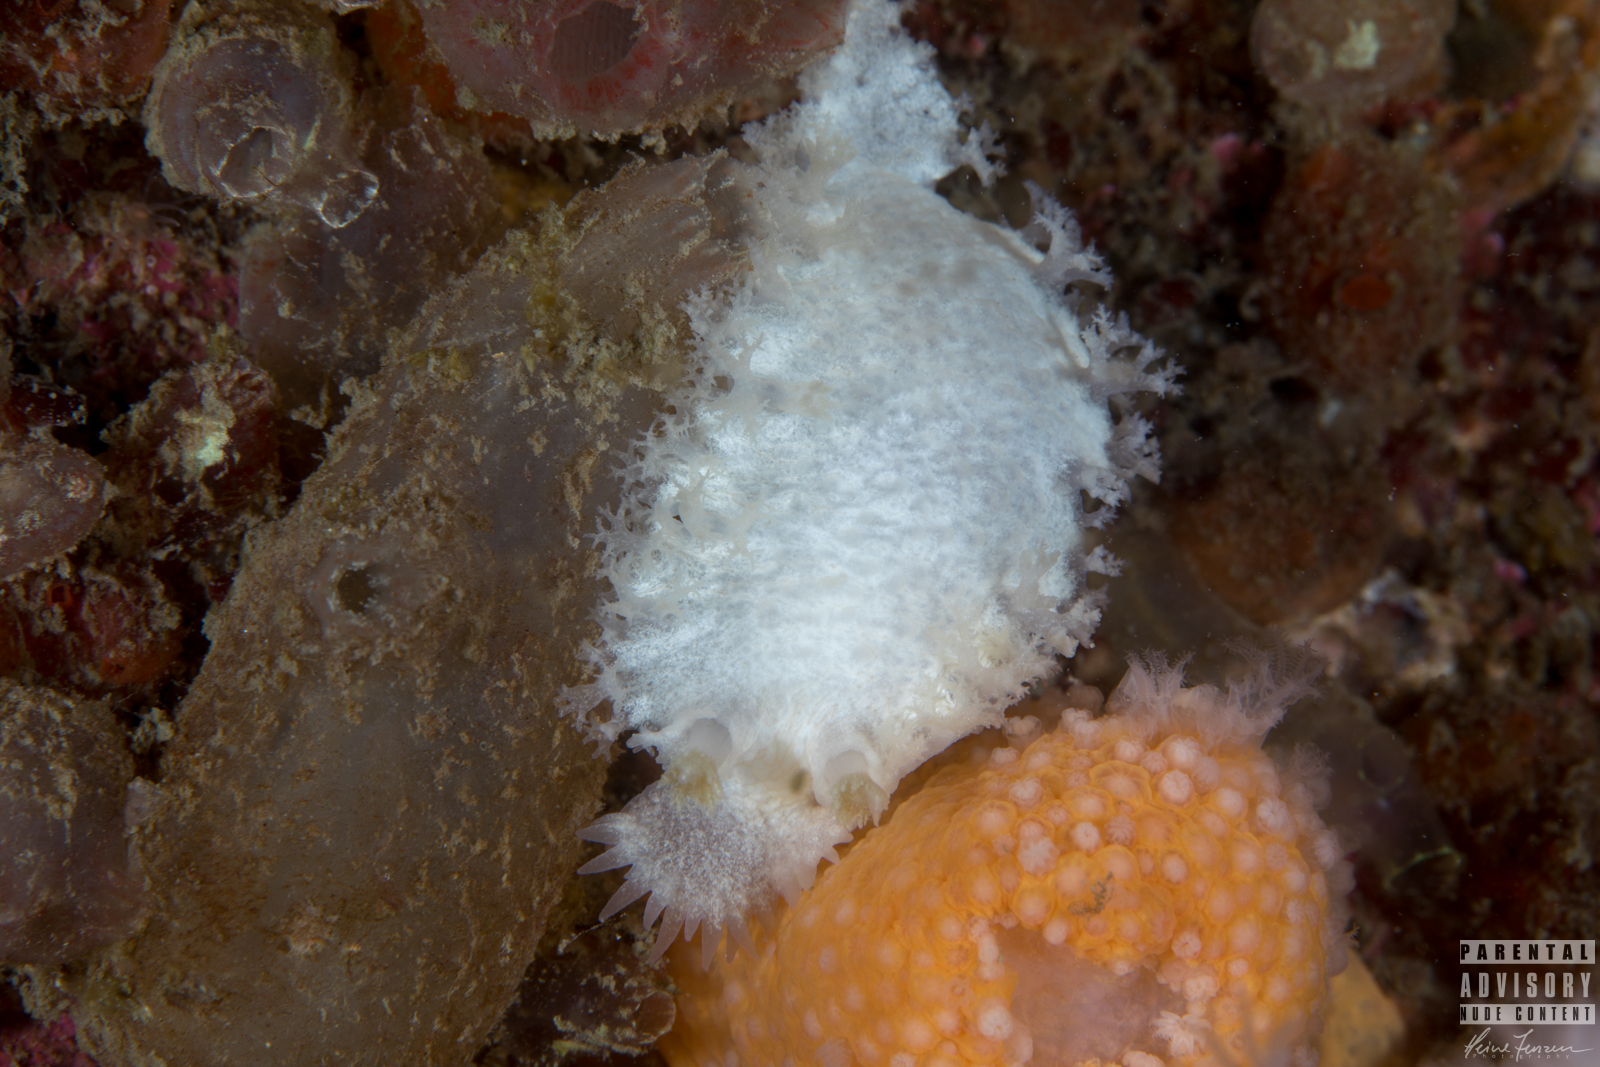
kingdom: Animalia
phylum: Mollusca
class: Gastropoda
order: Nudibranchia
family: Tritoniidae
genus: Tritonia
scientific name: Tritonia hombergii
